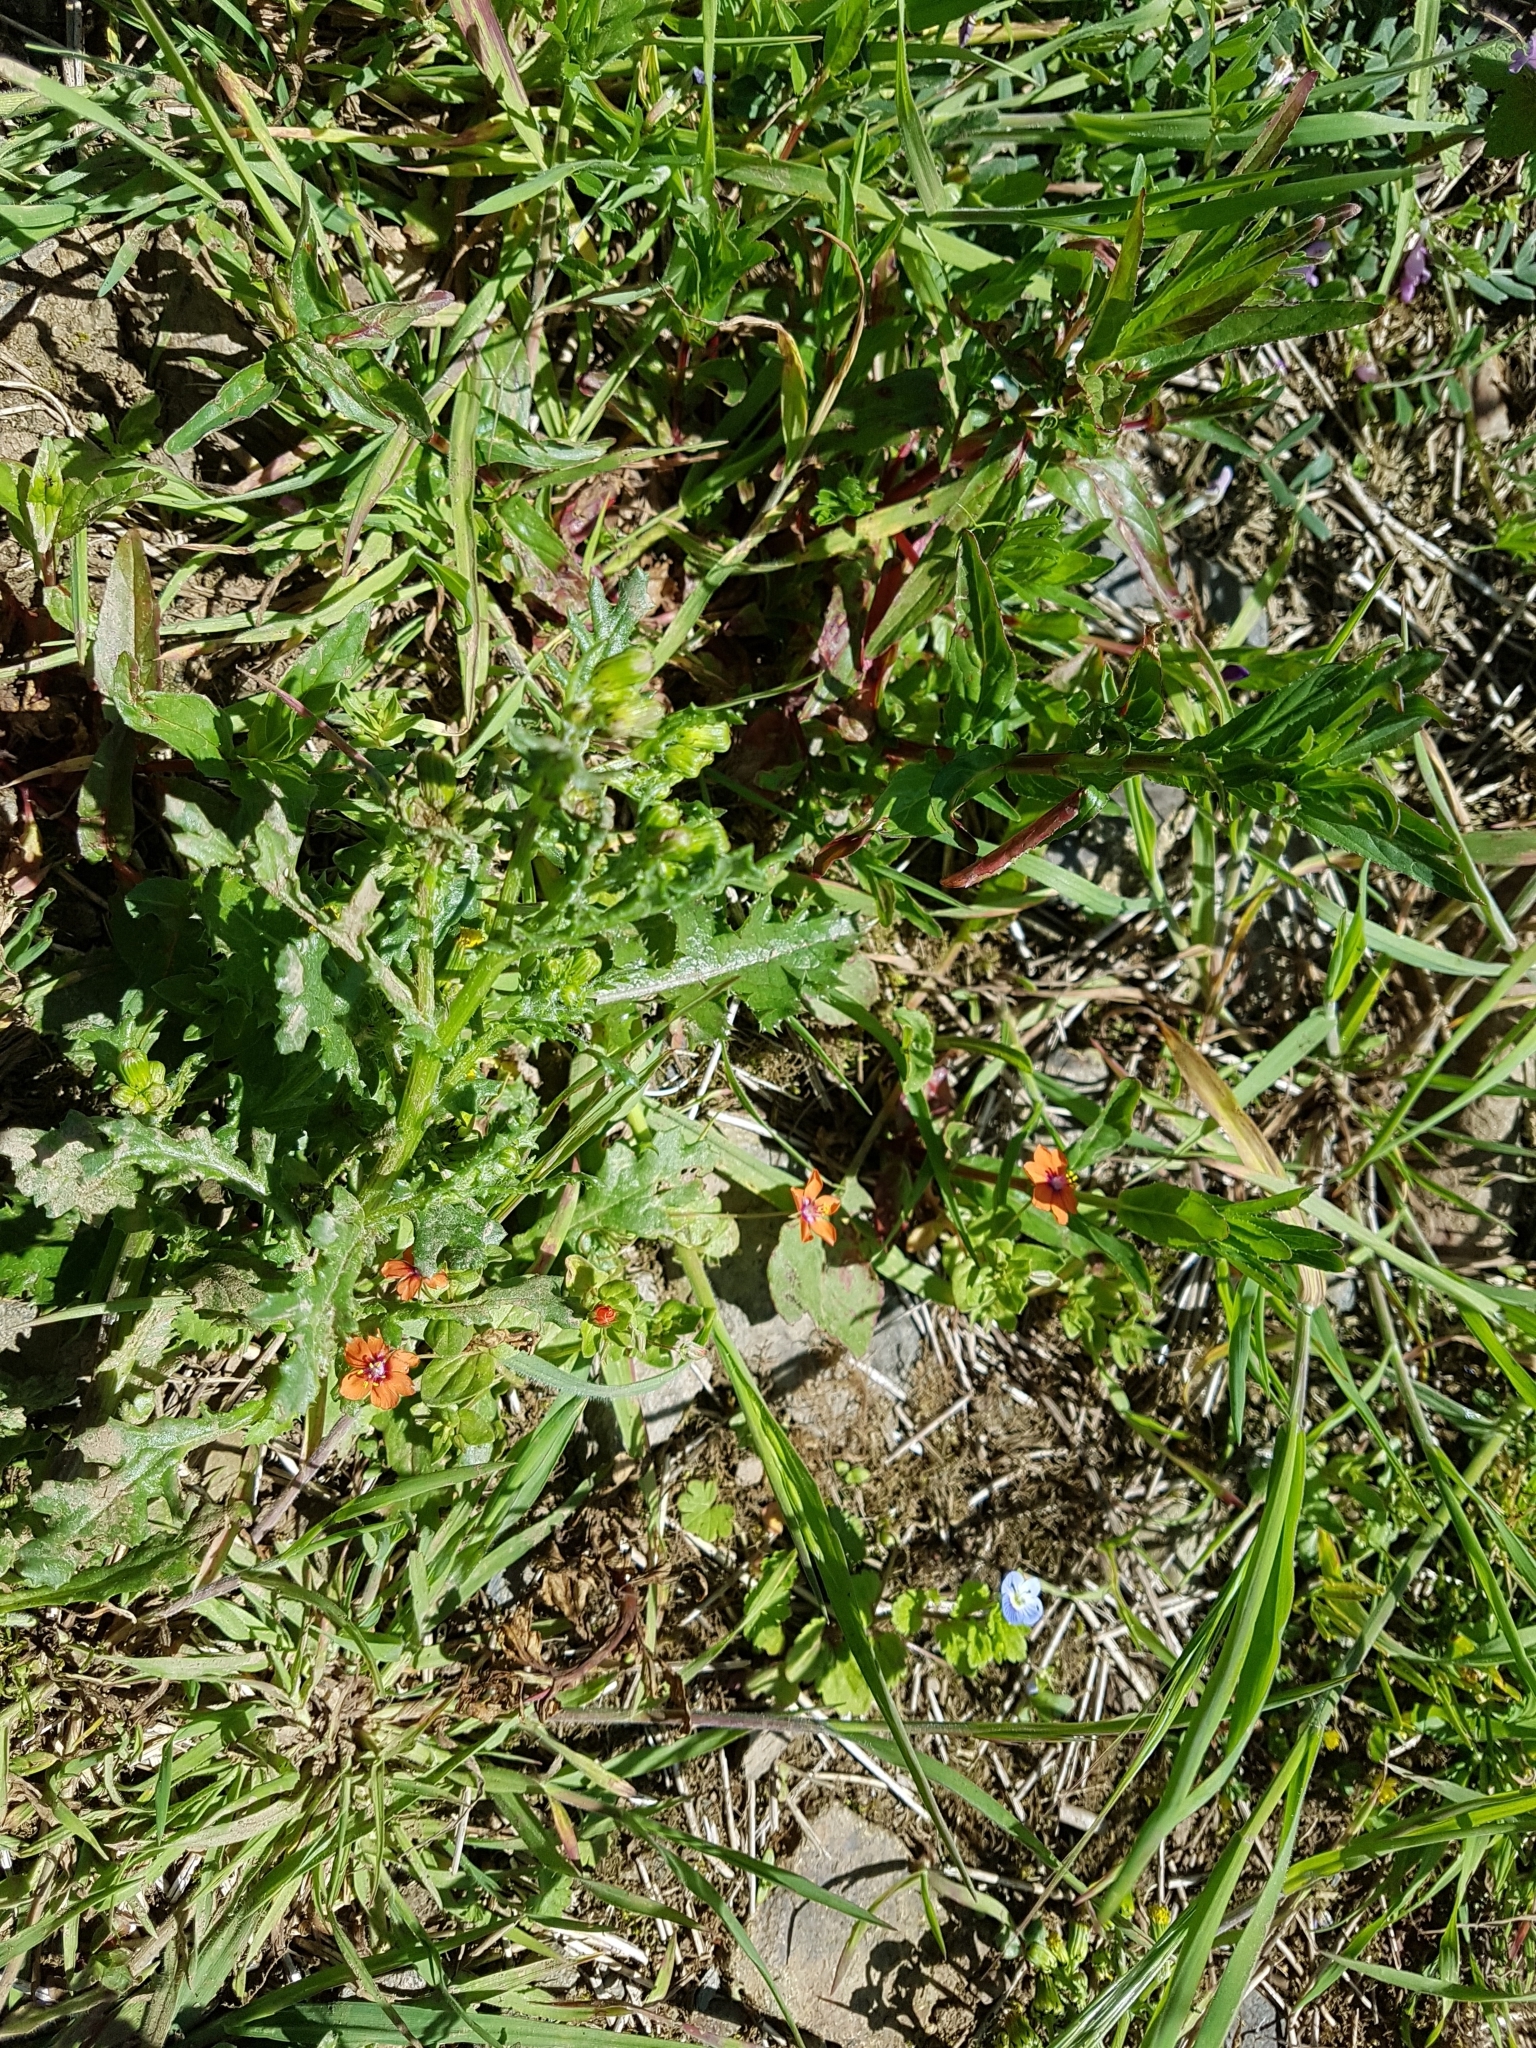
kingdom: Plantae
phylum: Tracheophyta
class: Magnoliopsida
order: Ericales
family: Primulaceae
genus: Lysimachia
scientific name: Lysimachia arvensis
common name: Scarlet pimpernel
